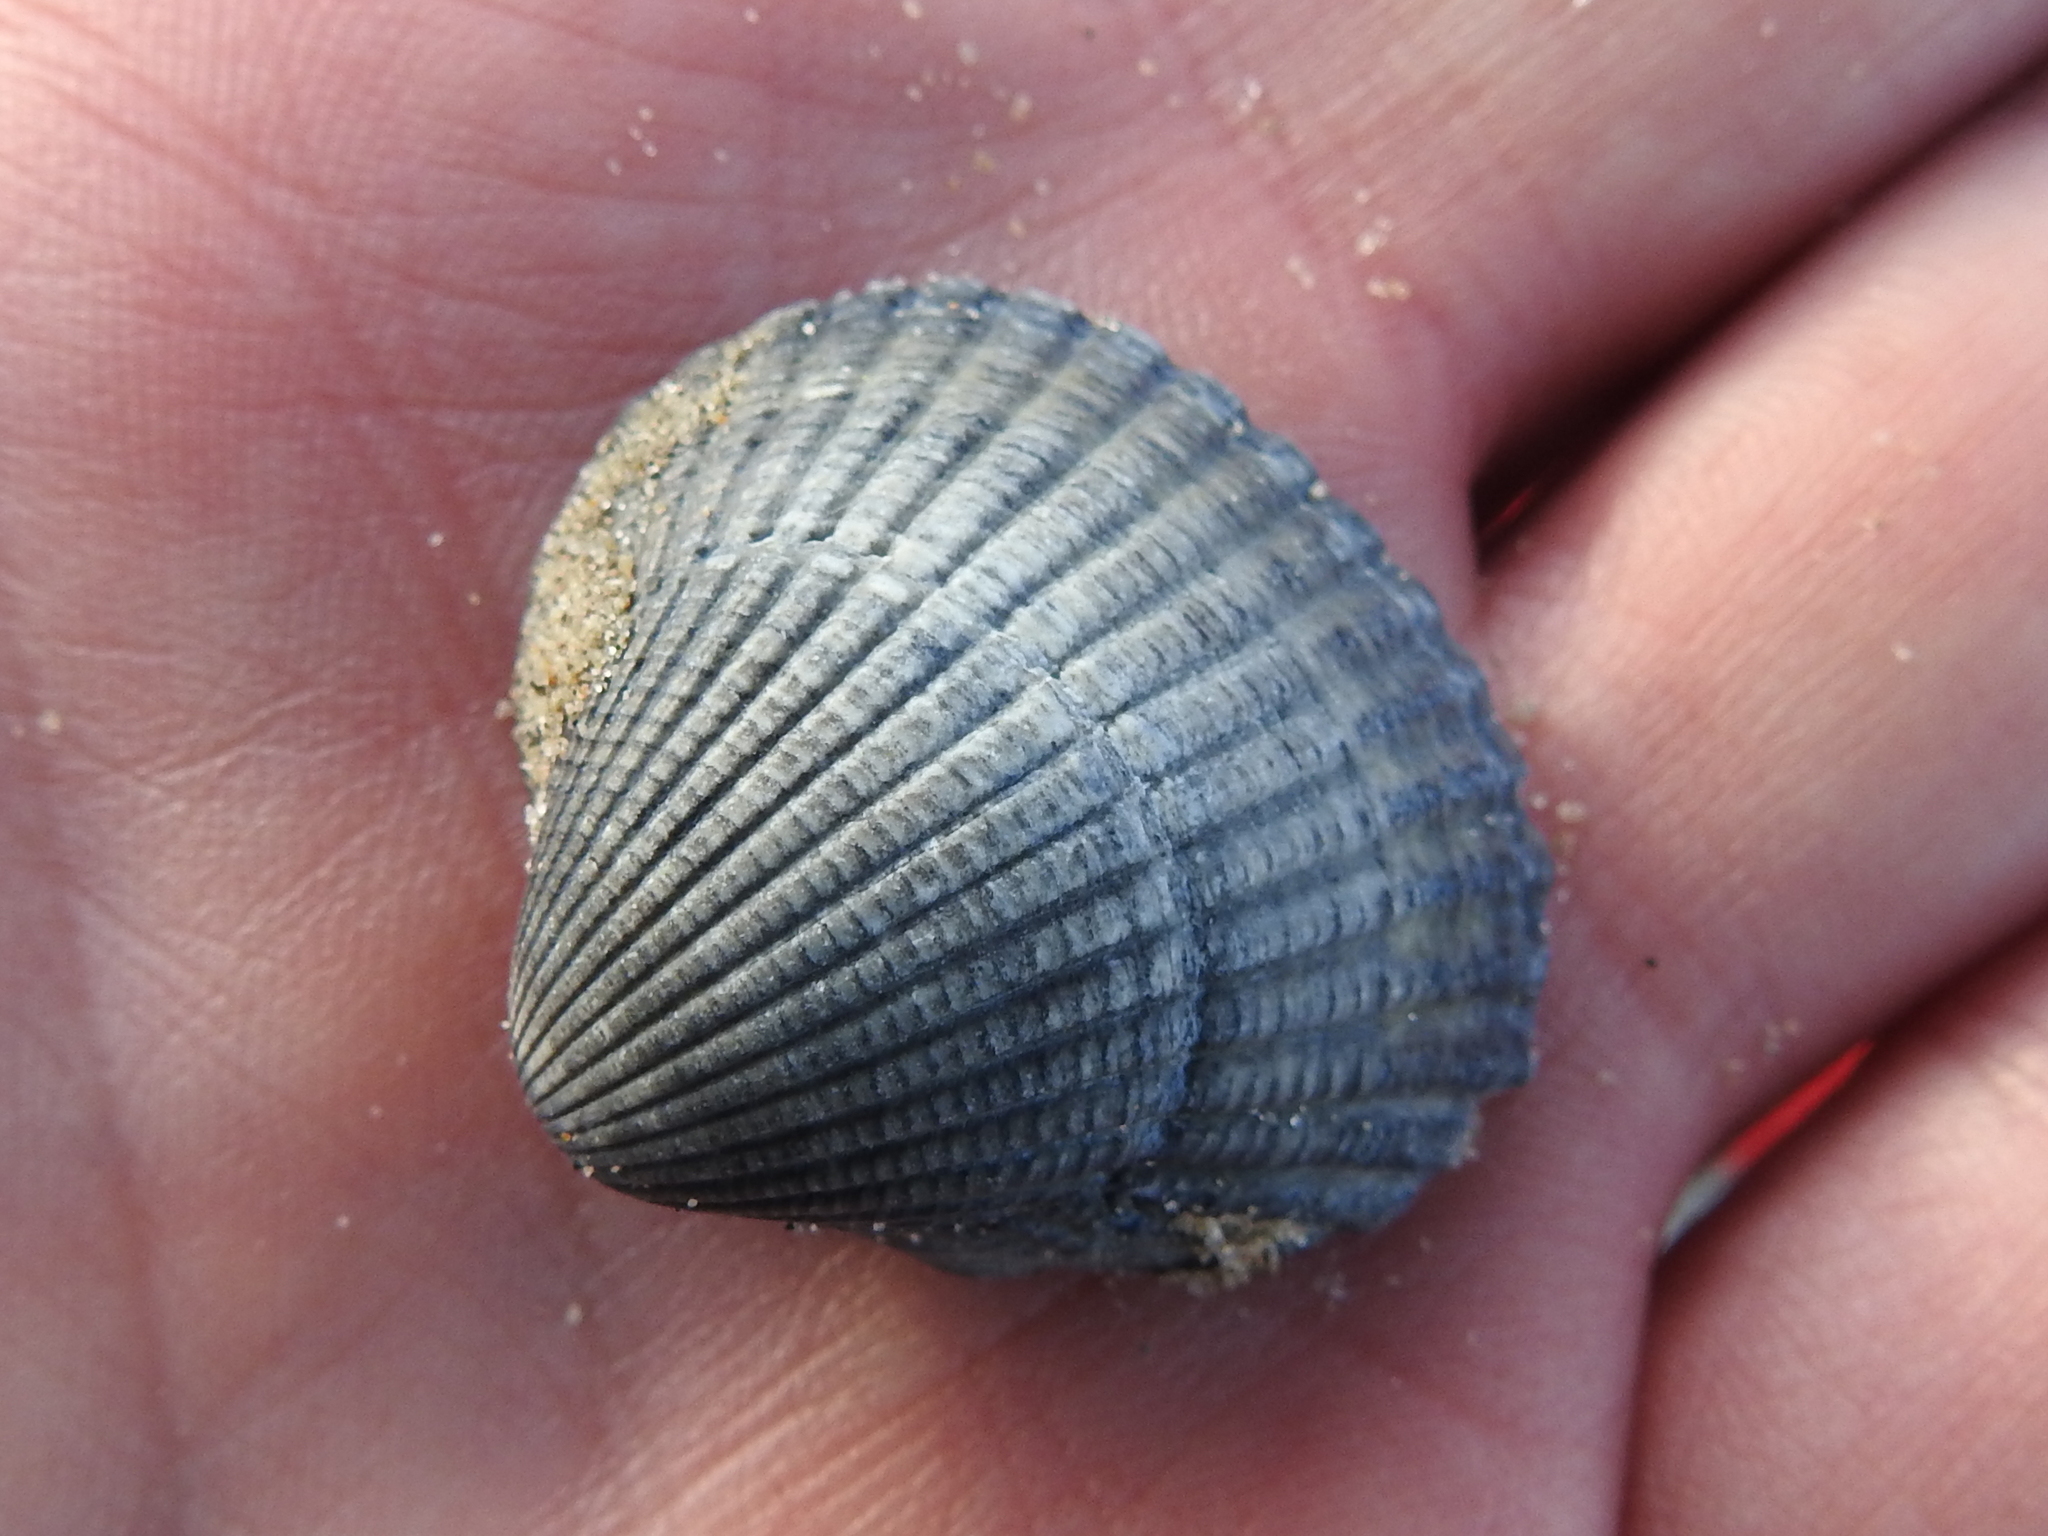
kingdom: Animalia
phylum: Mollusca
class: Bivalvia
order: Cardiida
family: Cardiidae
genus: Cerastoderma
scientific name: Cerastoderma edule
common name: Common cockle
